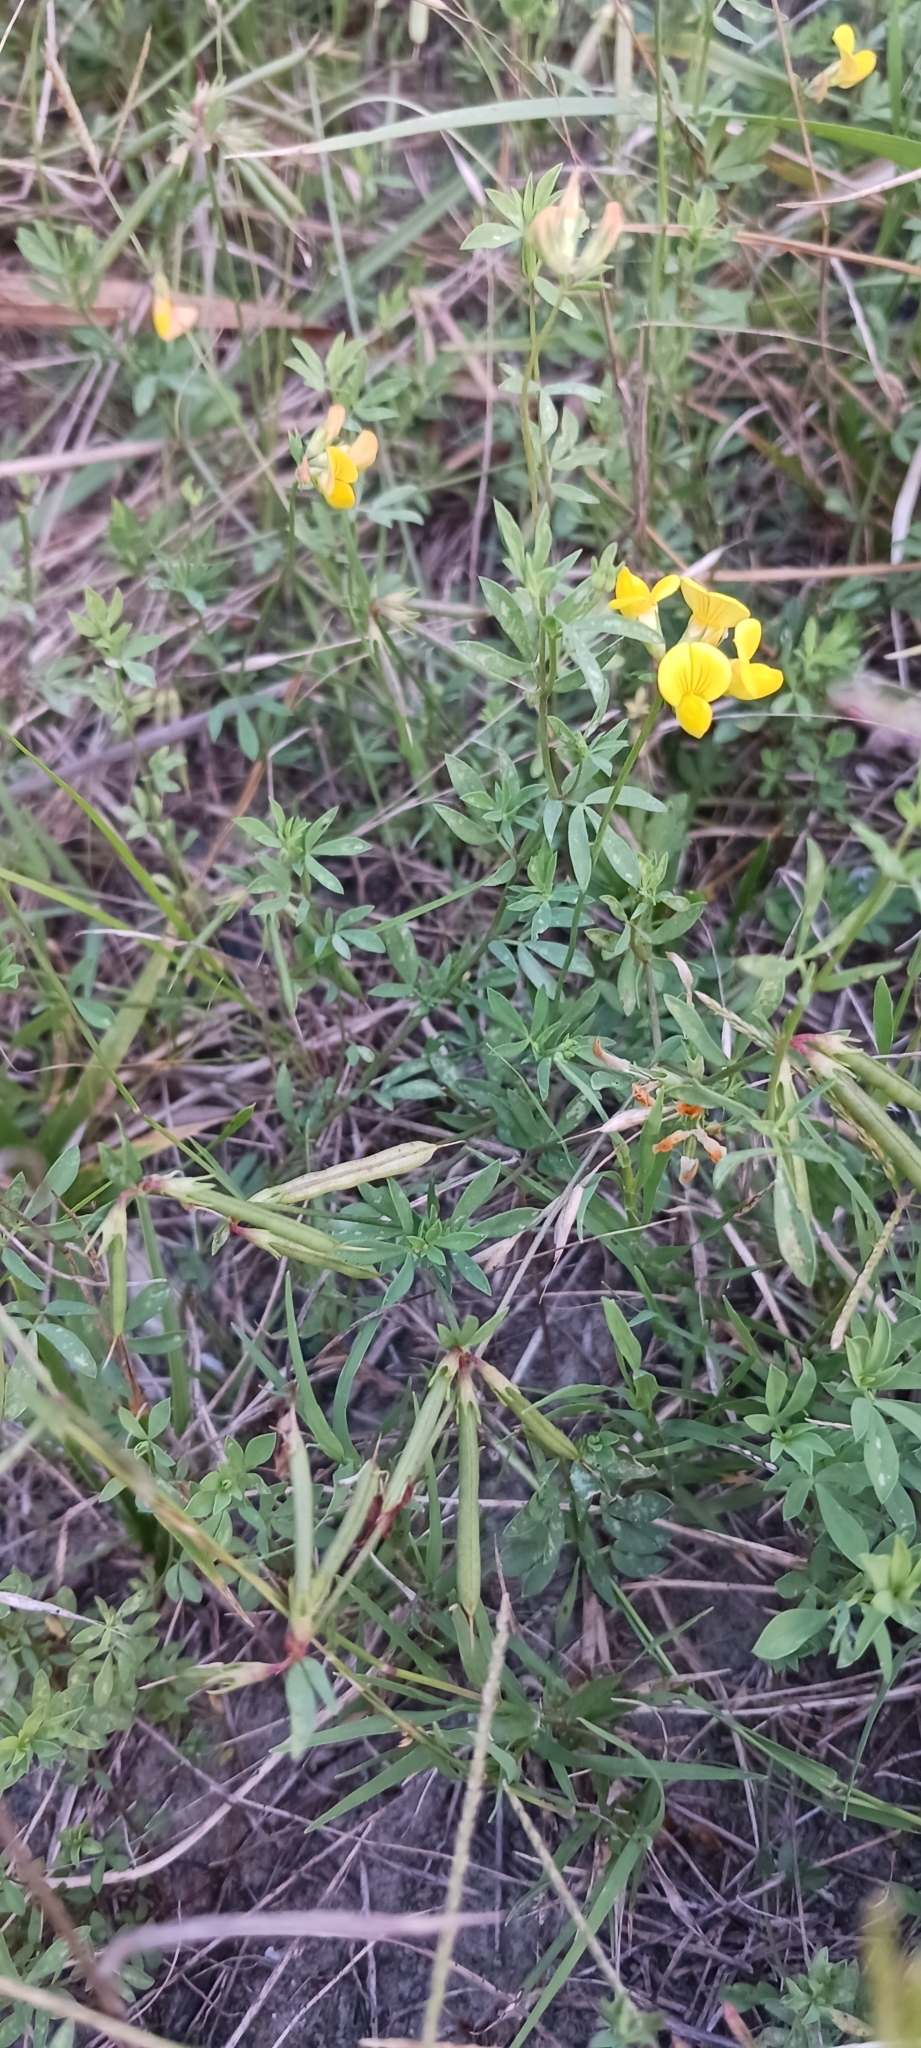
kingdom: Plantae
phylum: Tracheophyta
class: Magnoliopsida
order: Fabales
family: Fabaceae
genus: Lotus
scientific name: Lotus corniculatus
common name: Common bird's-foot-trefoil
